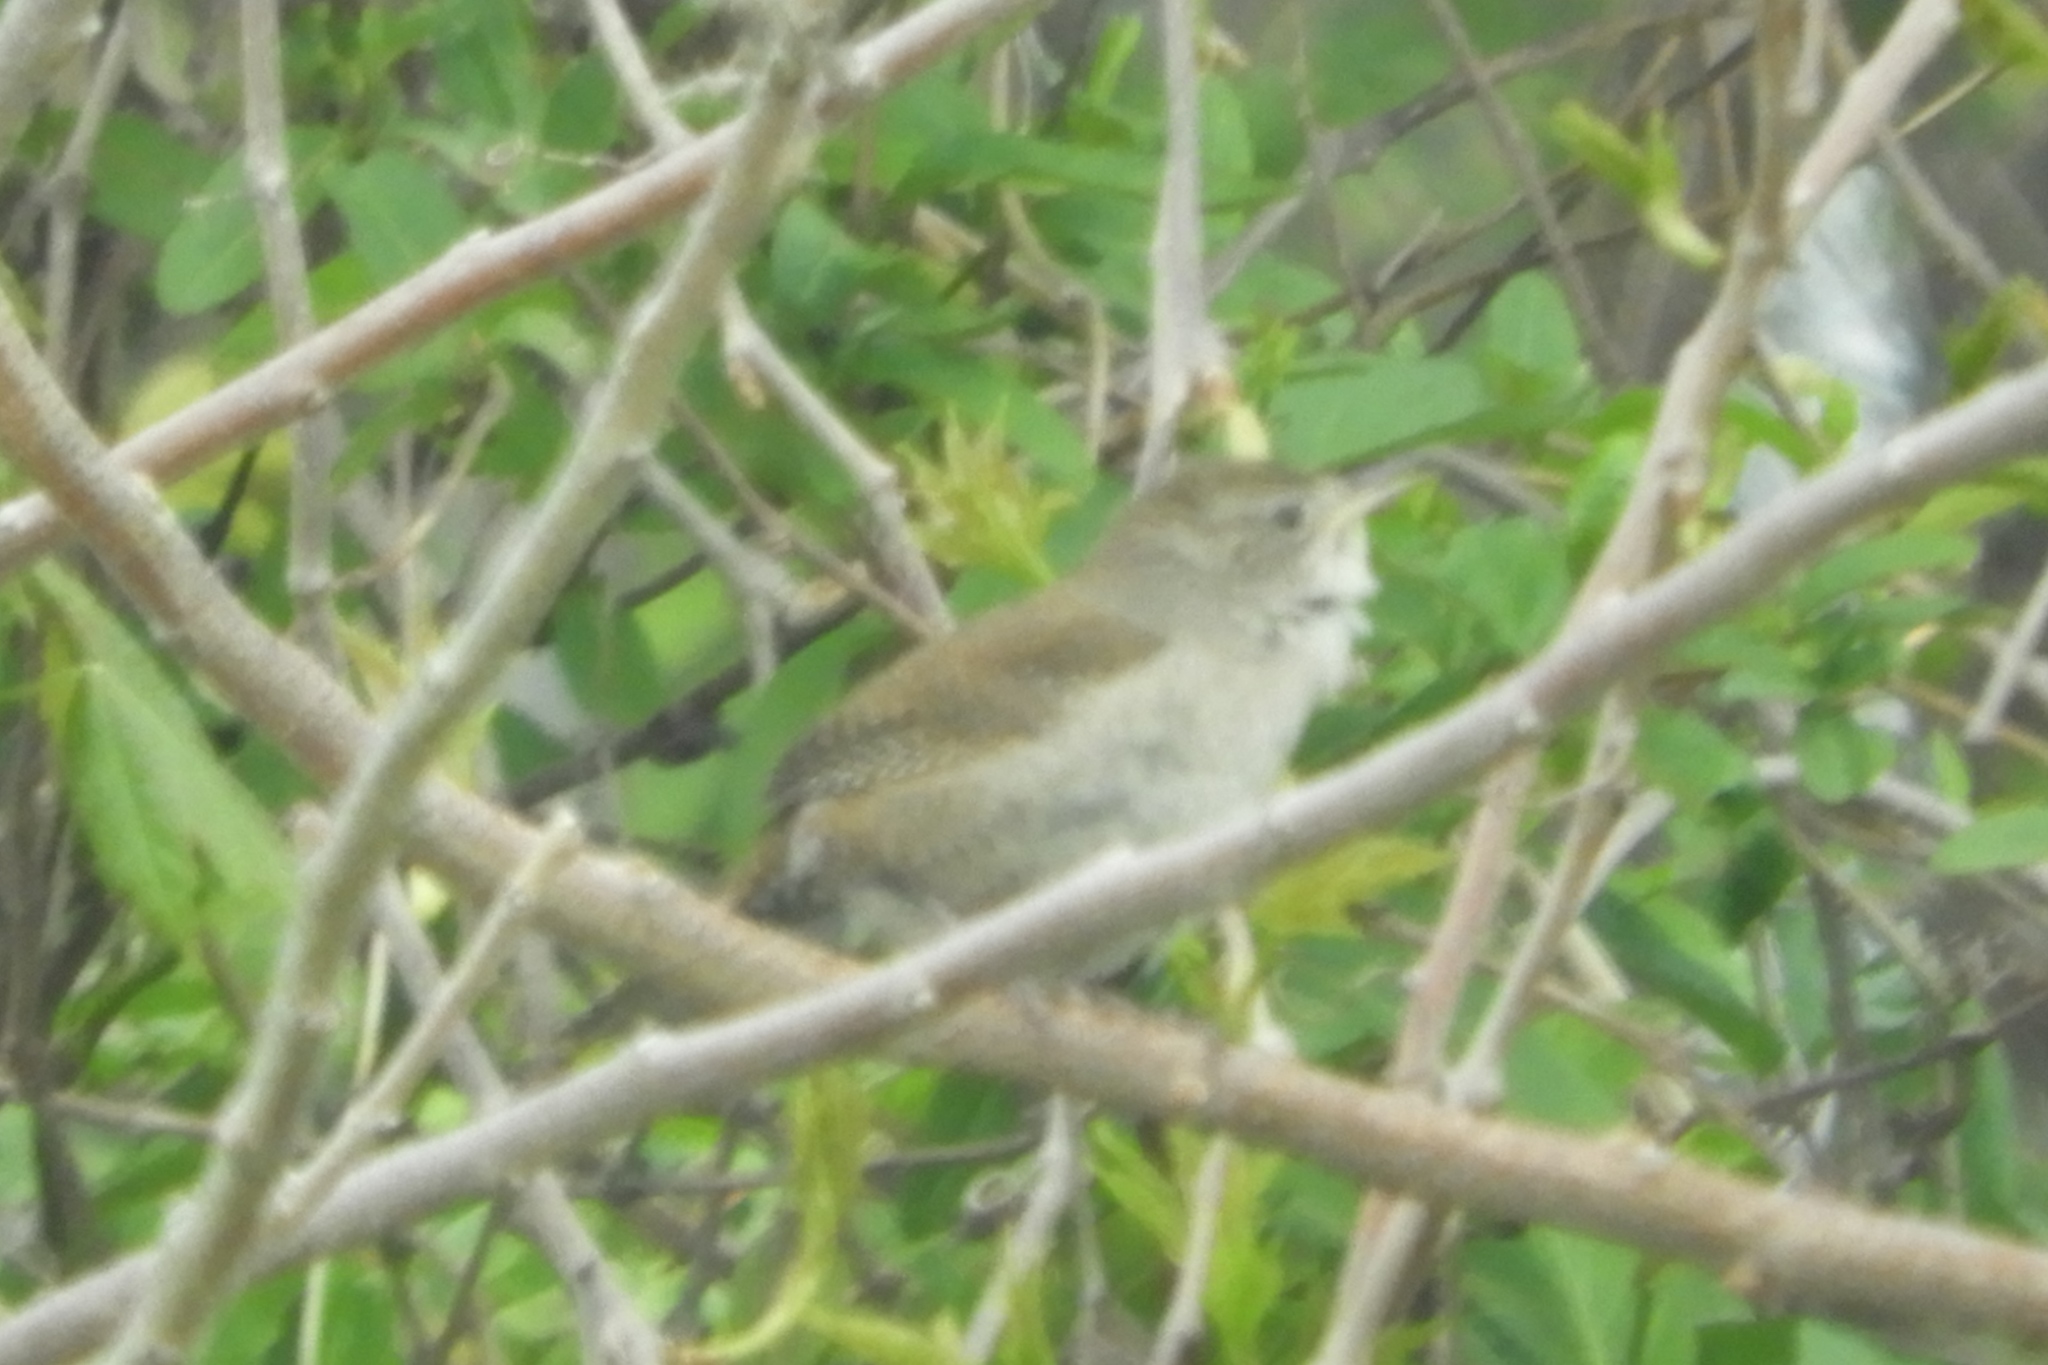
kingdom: Animalia
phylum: Chordata
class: Aves
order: Passeriformes
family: Troglodytidae
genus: Troglodytes
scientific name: Troglodytes aedon
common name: House wren
